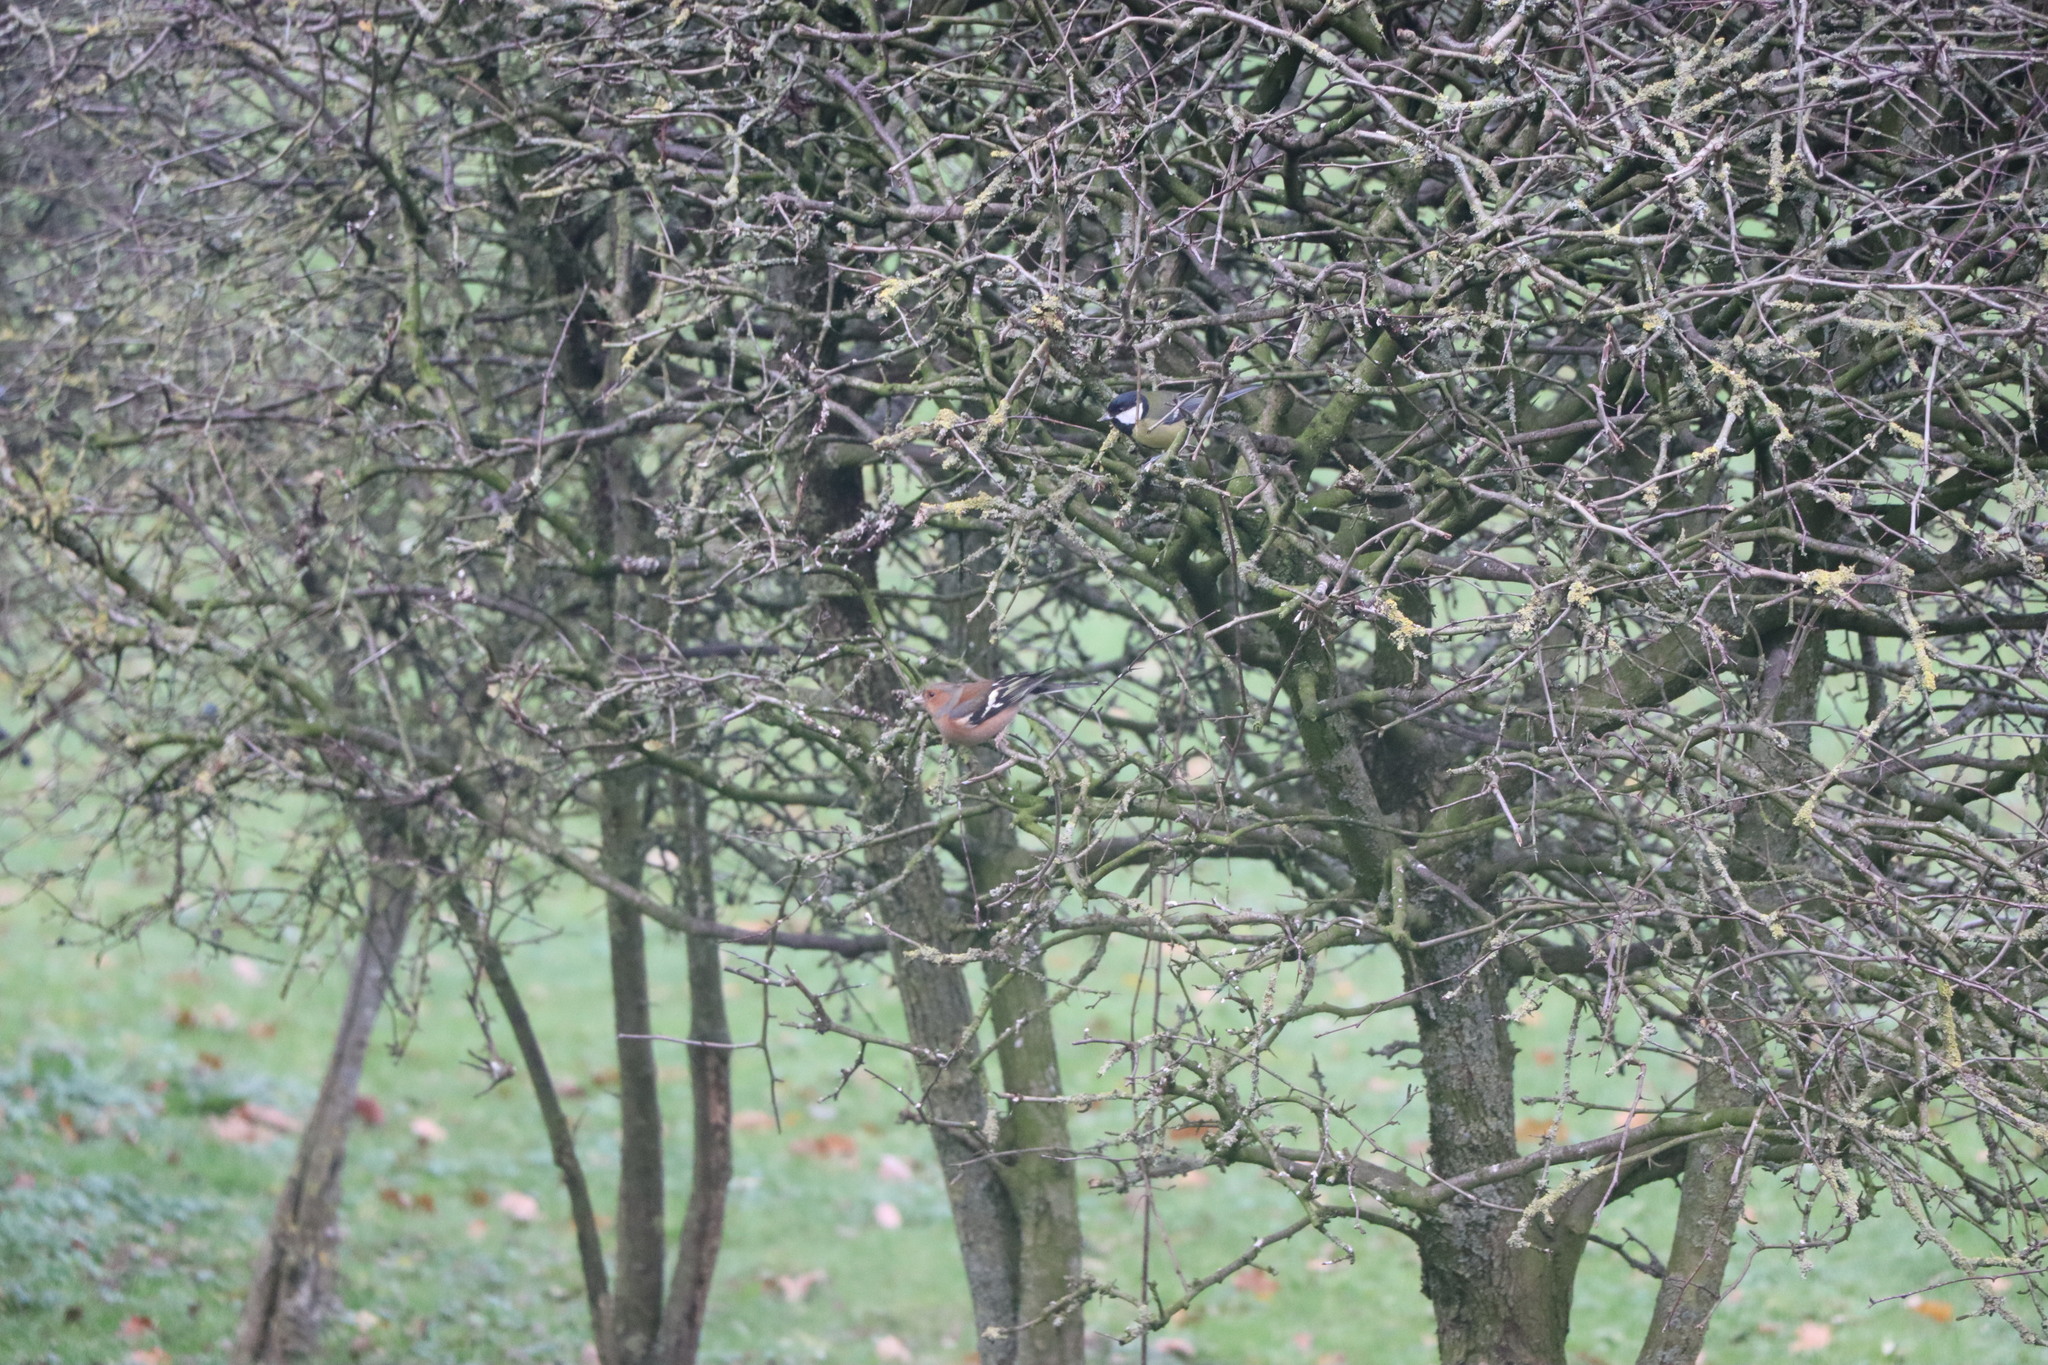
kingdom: Animalia
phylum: Chordata
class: Aves
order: Passeriformes
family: Fringillidae
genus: Fringilla
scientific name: Fringilla coelebs
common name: Common chaffinch
